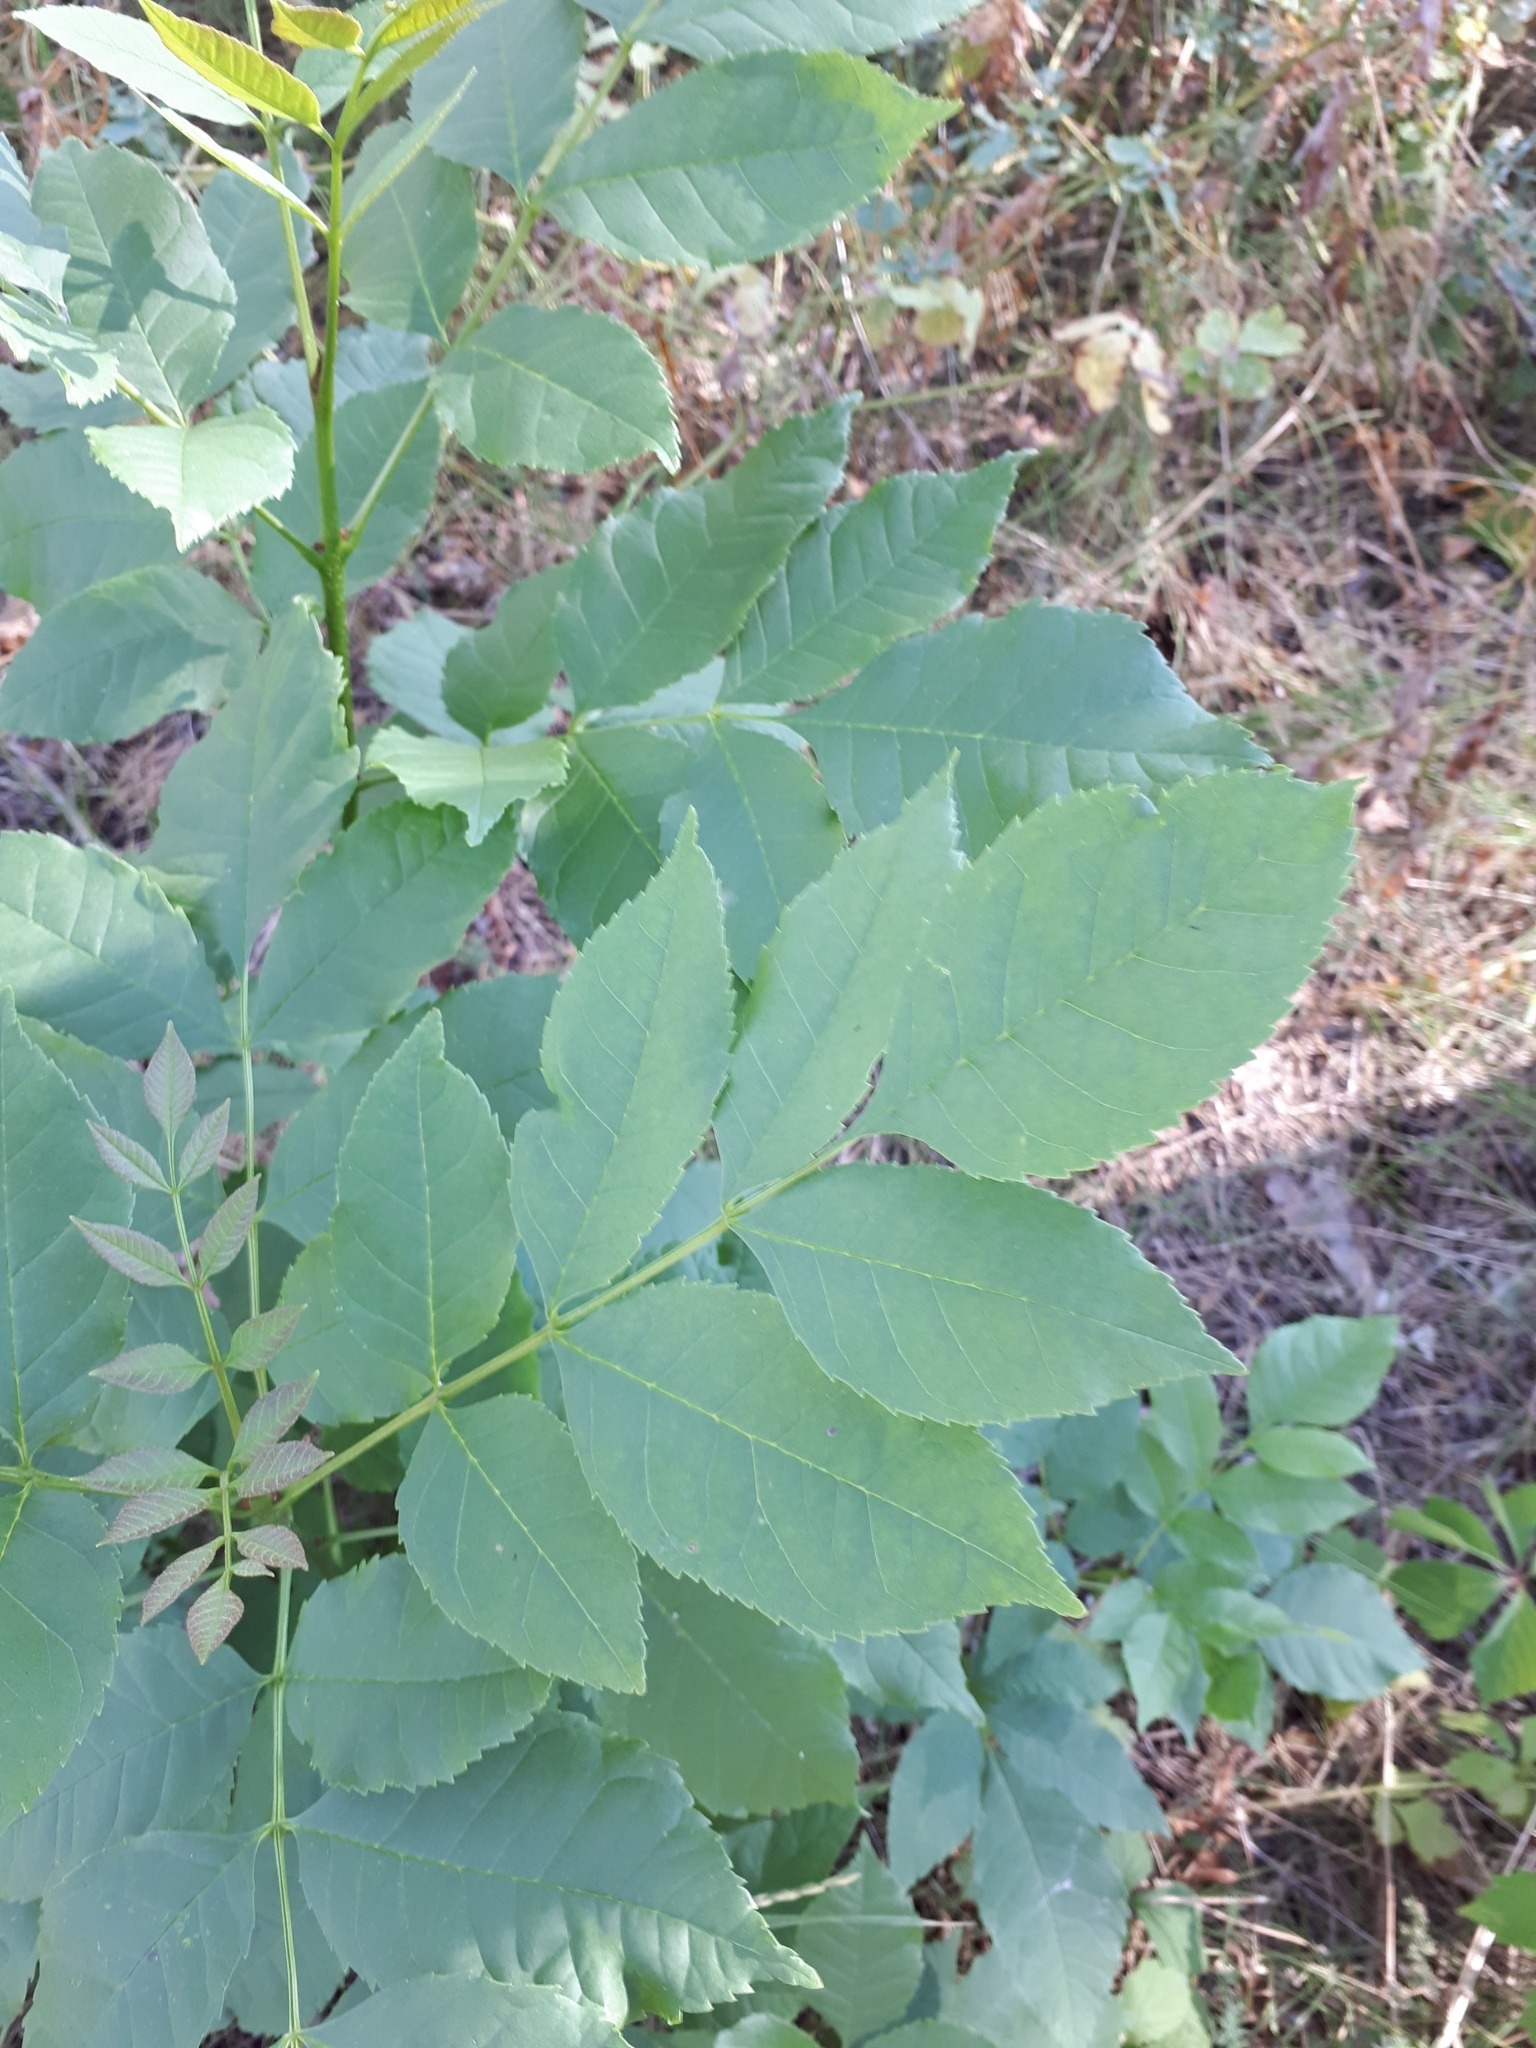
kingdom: Plantae
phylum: Tracheophyta
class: Magnoliopsida
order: Lamiales
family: Oleaceae
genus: Fraxinus
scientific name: Fraxinus pennsylvanica
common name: Green ash
